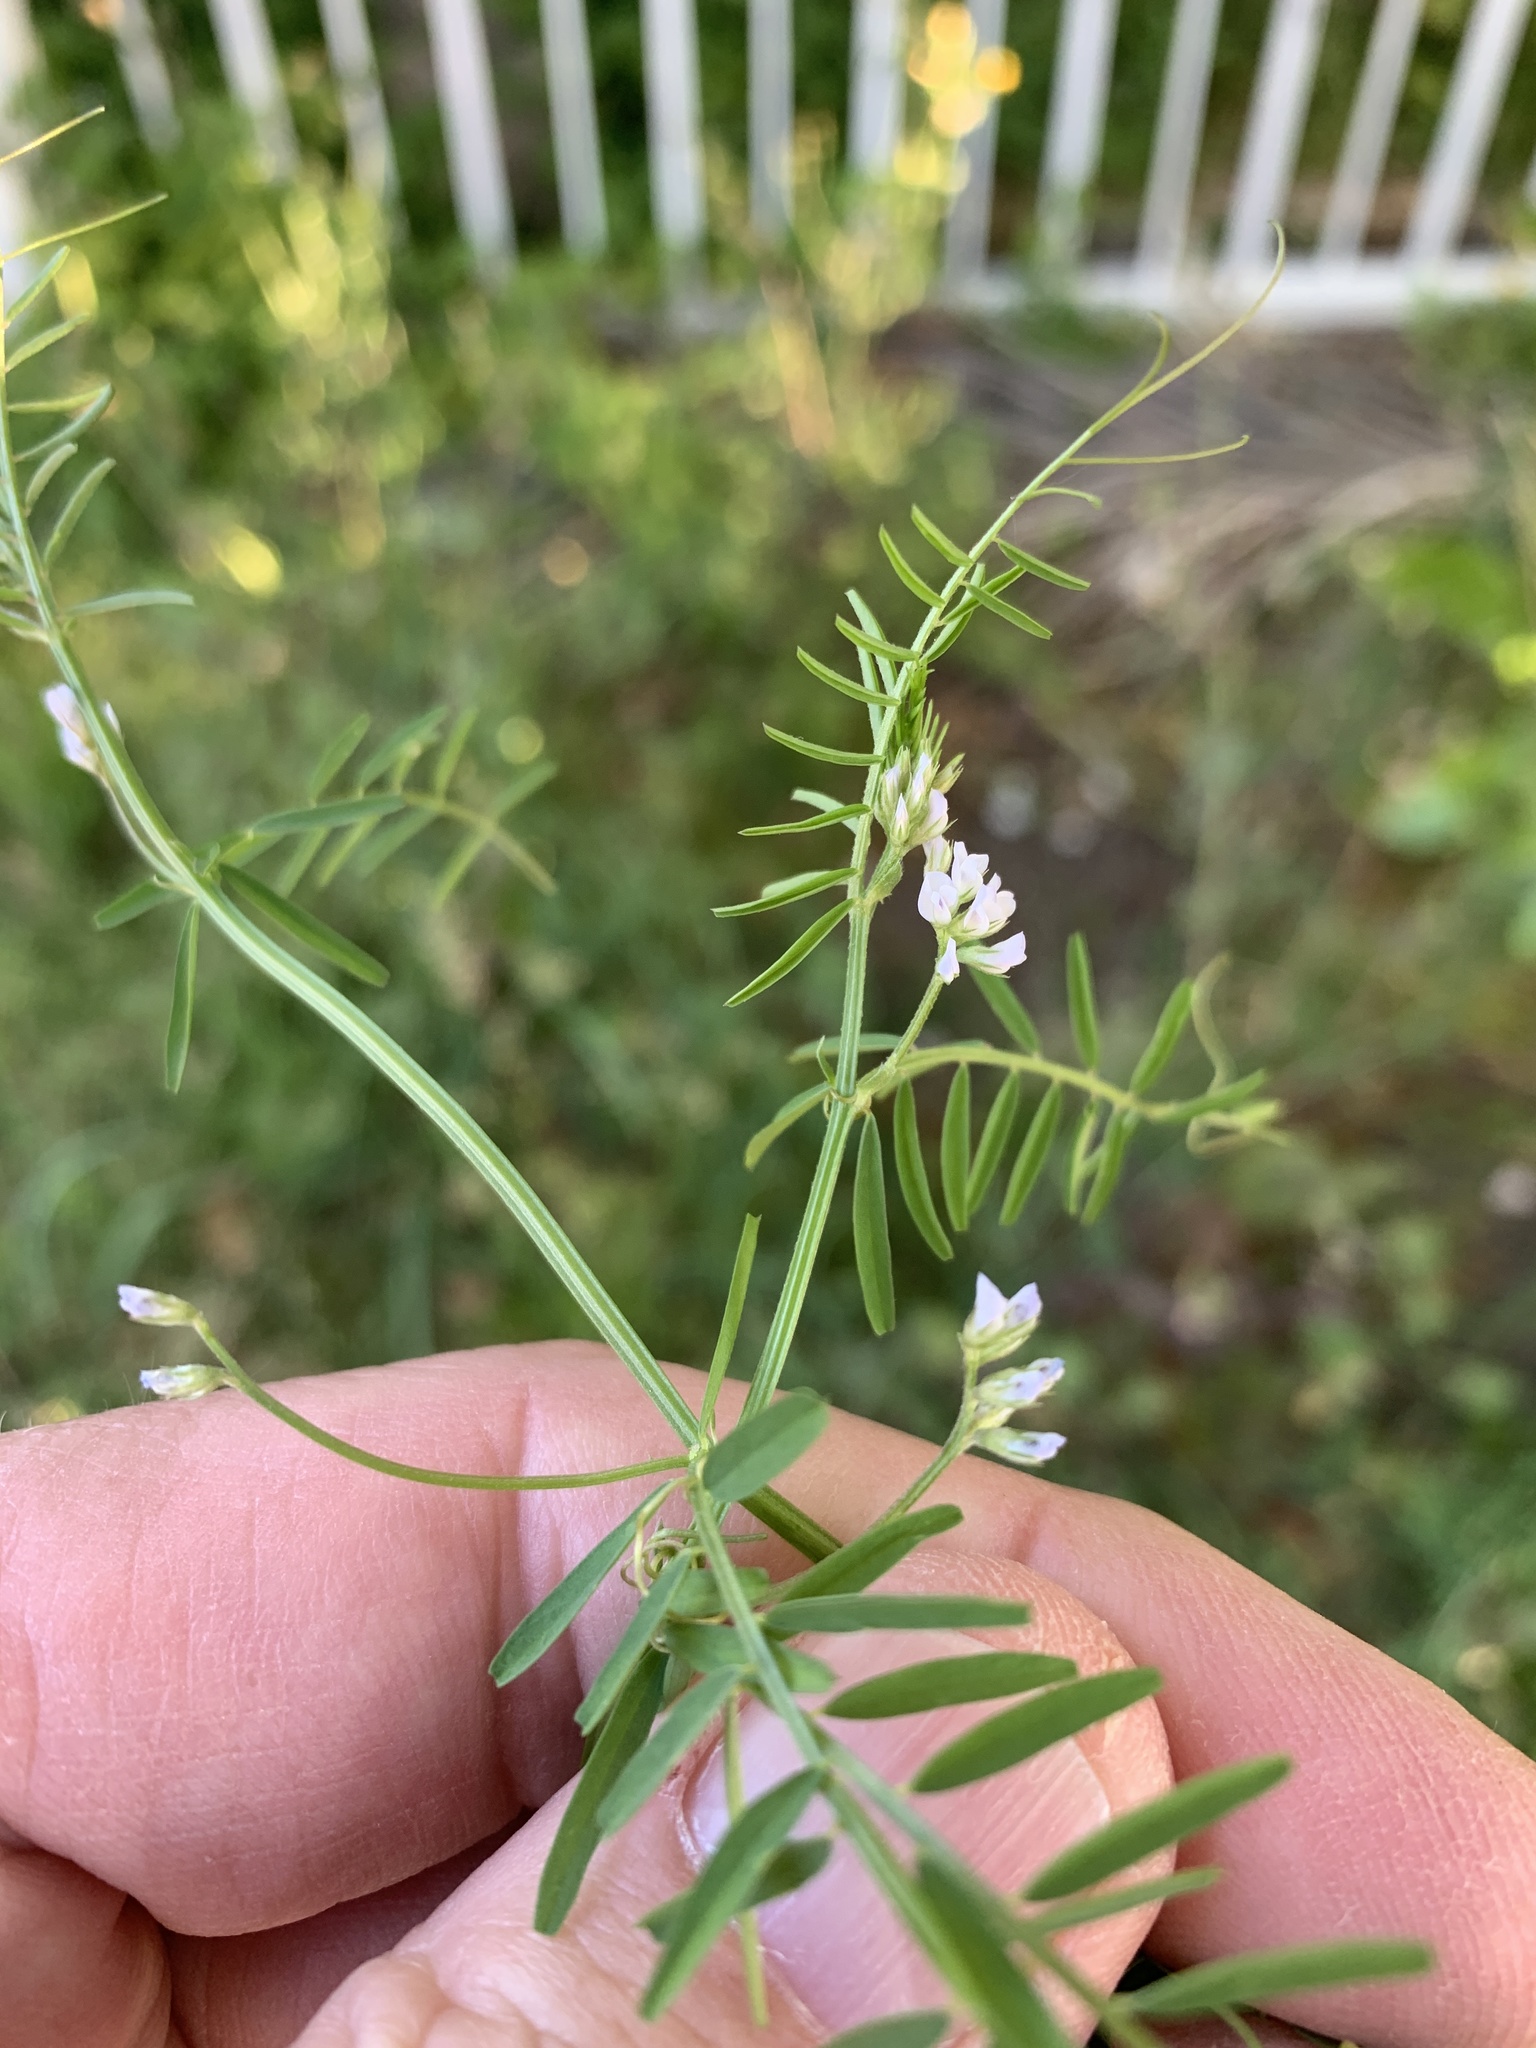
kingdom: Plantae
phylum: Tracheophyta
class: Magnoliopsida
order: Fabales
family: Fabaceae
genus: Vicia
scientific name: Vicia hirsuta
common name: Tiny vetch
